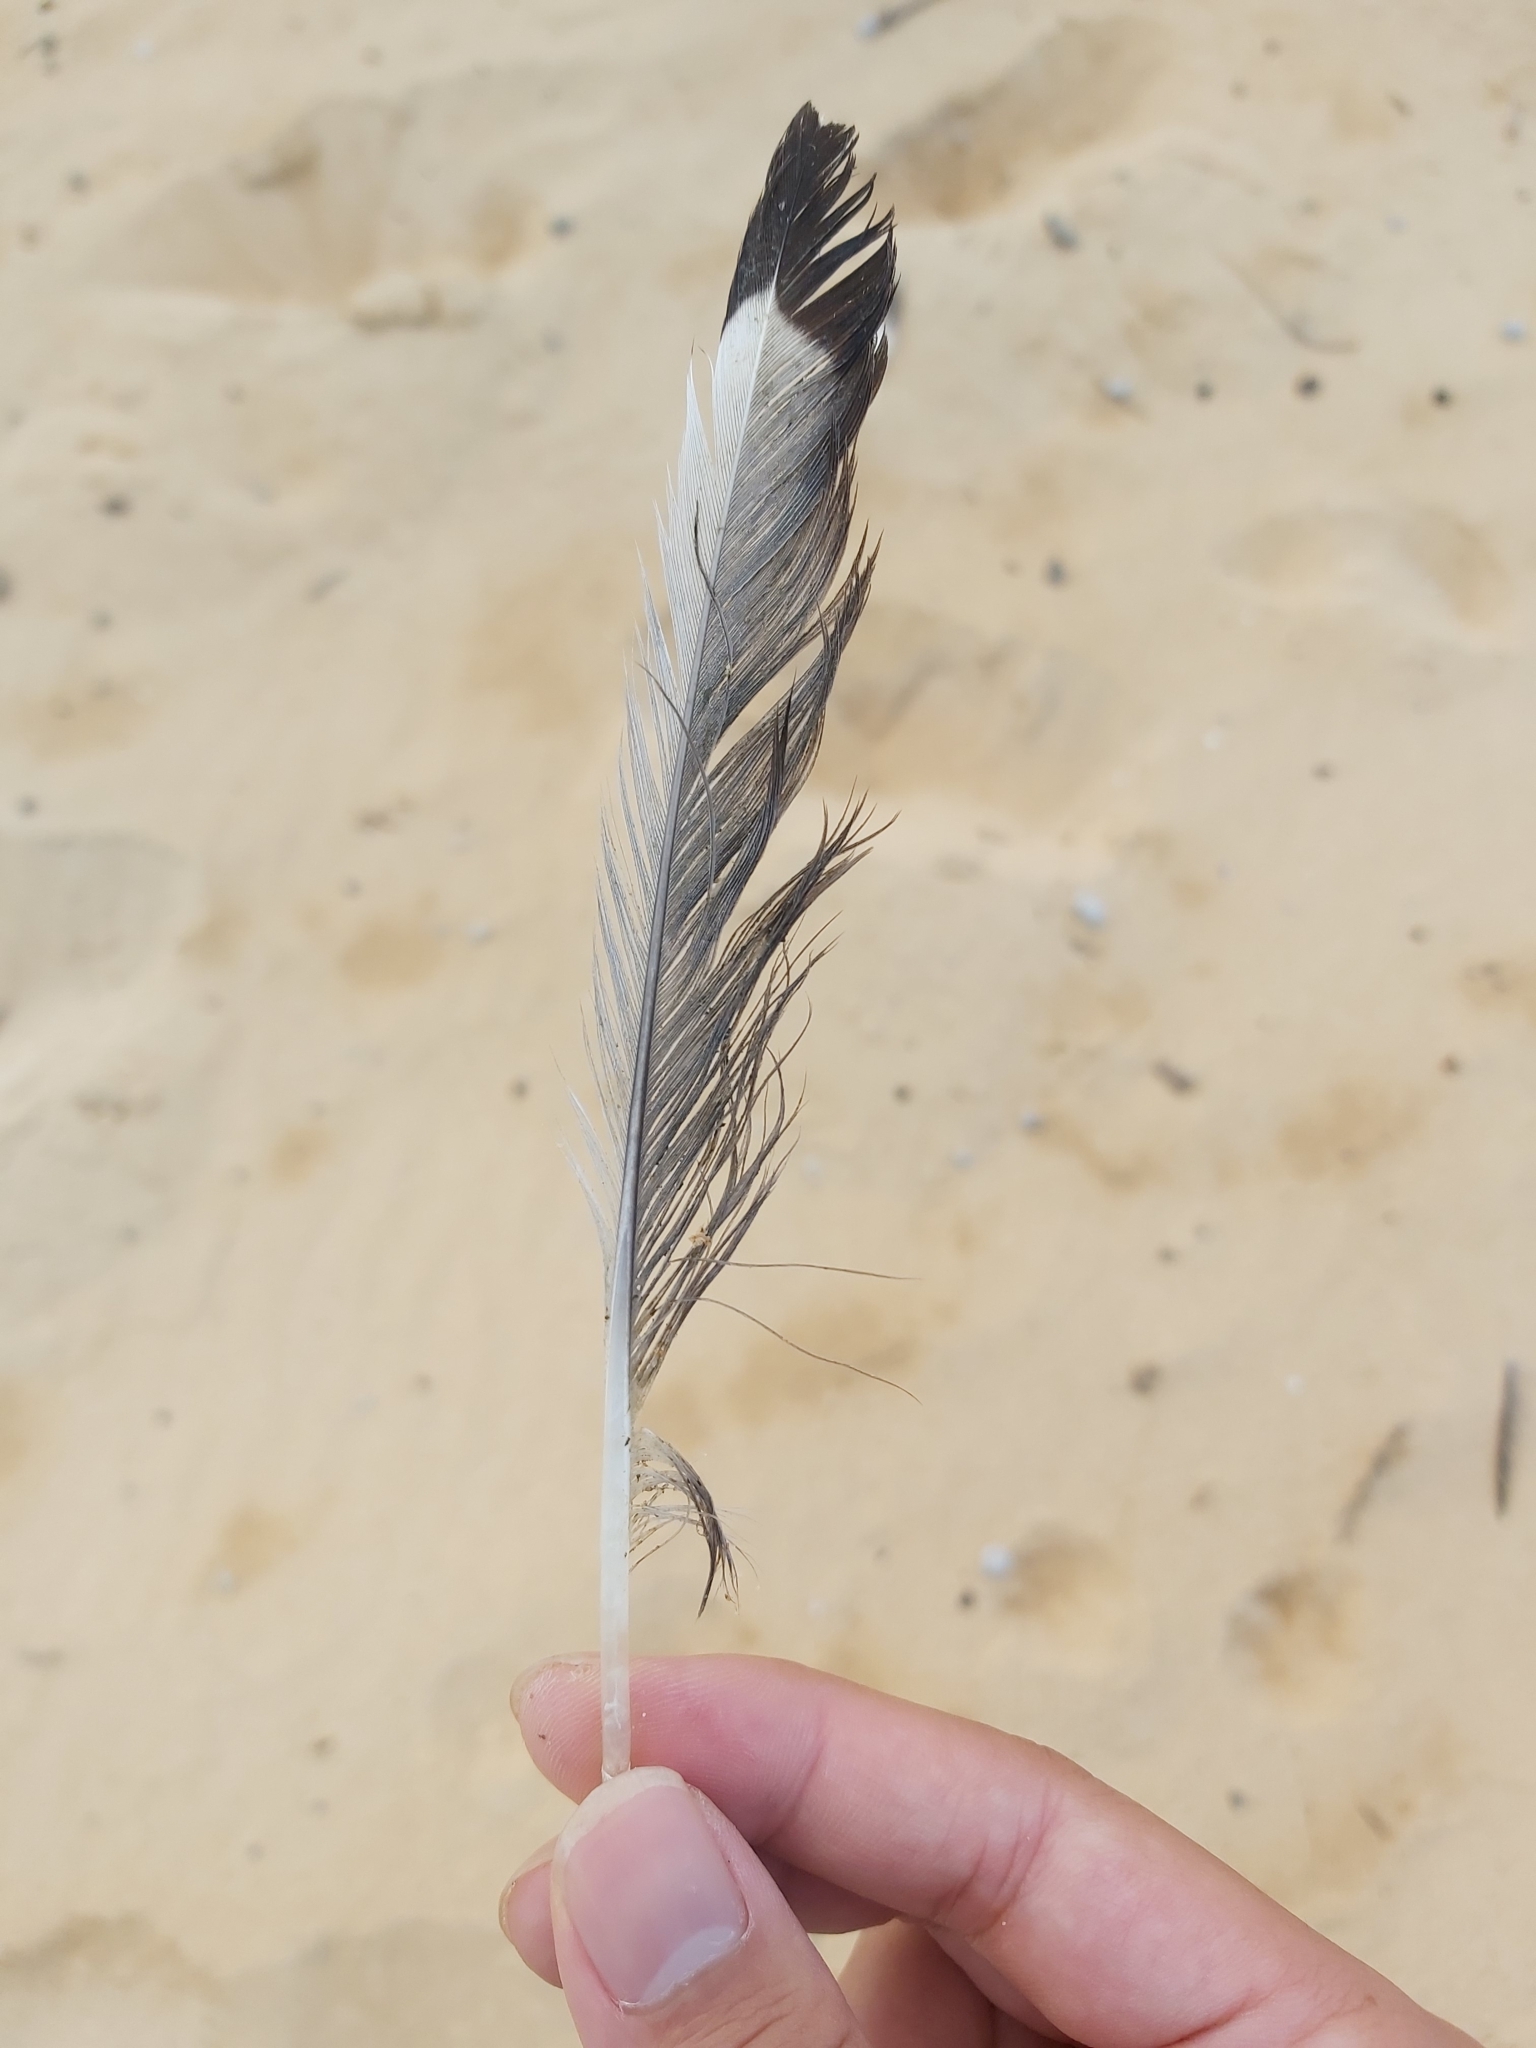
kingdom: Animalia
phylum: Chordata
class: Aves
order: Charadriiformes
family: Laridae
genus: Chroicocephalus
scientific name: Chroicocephalus novaehollandiae
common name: Silver gull
